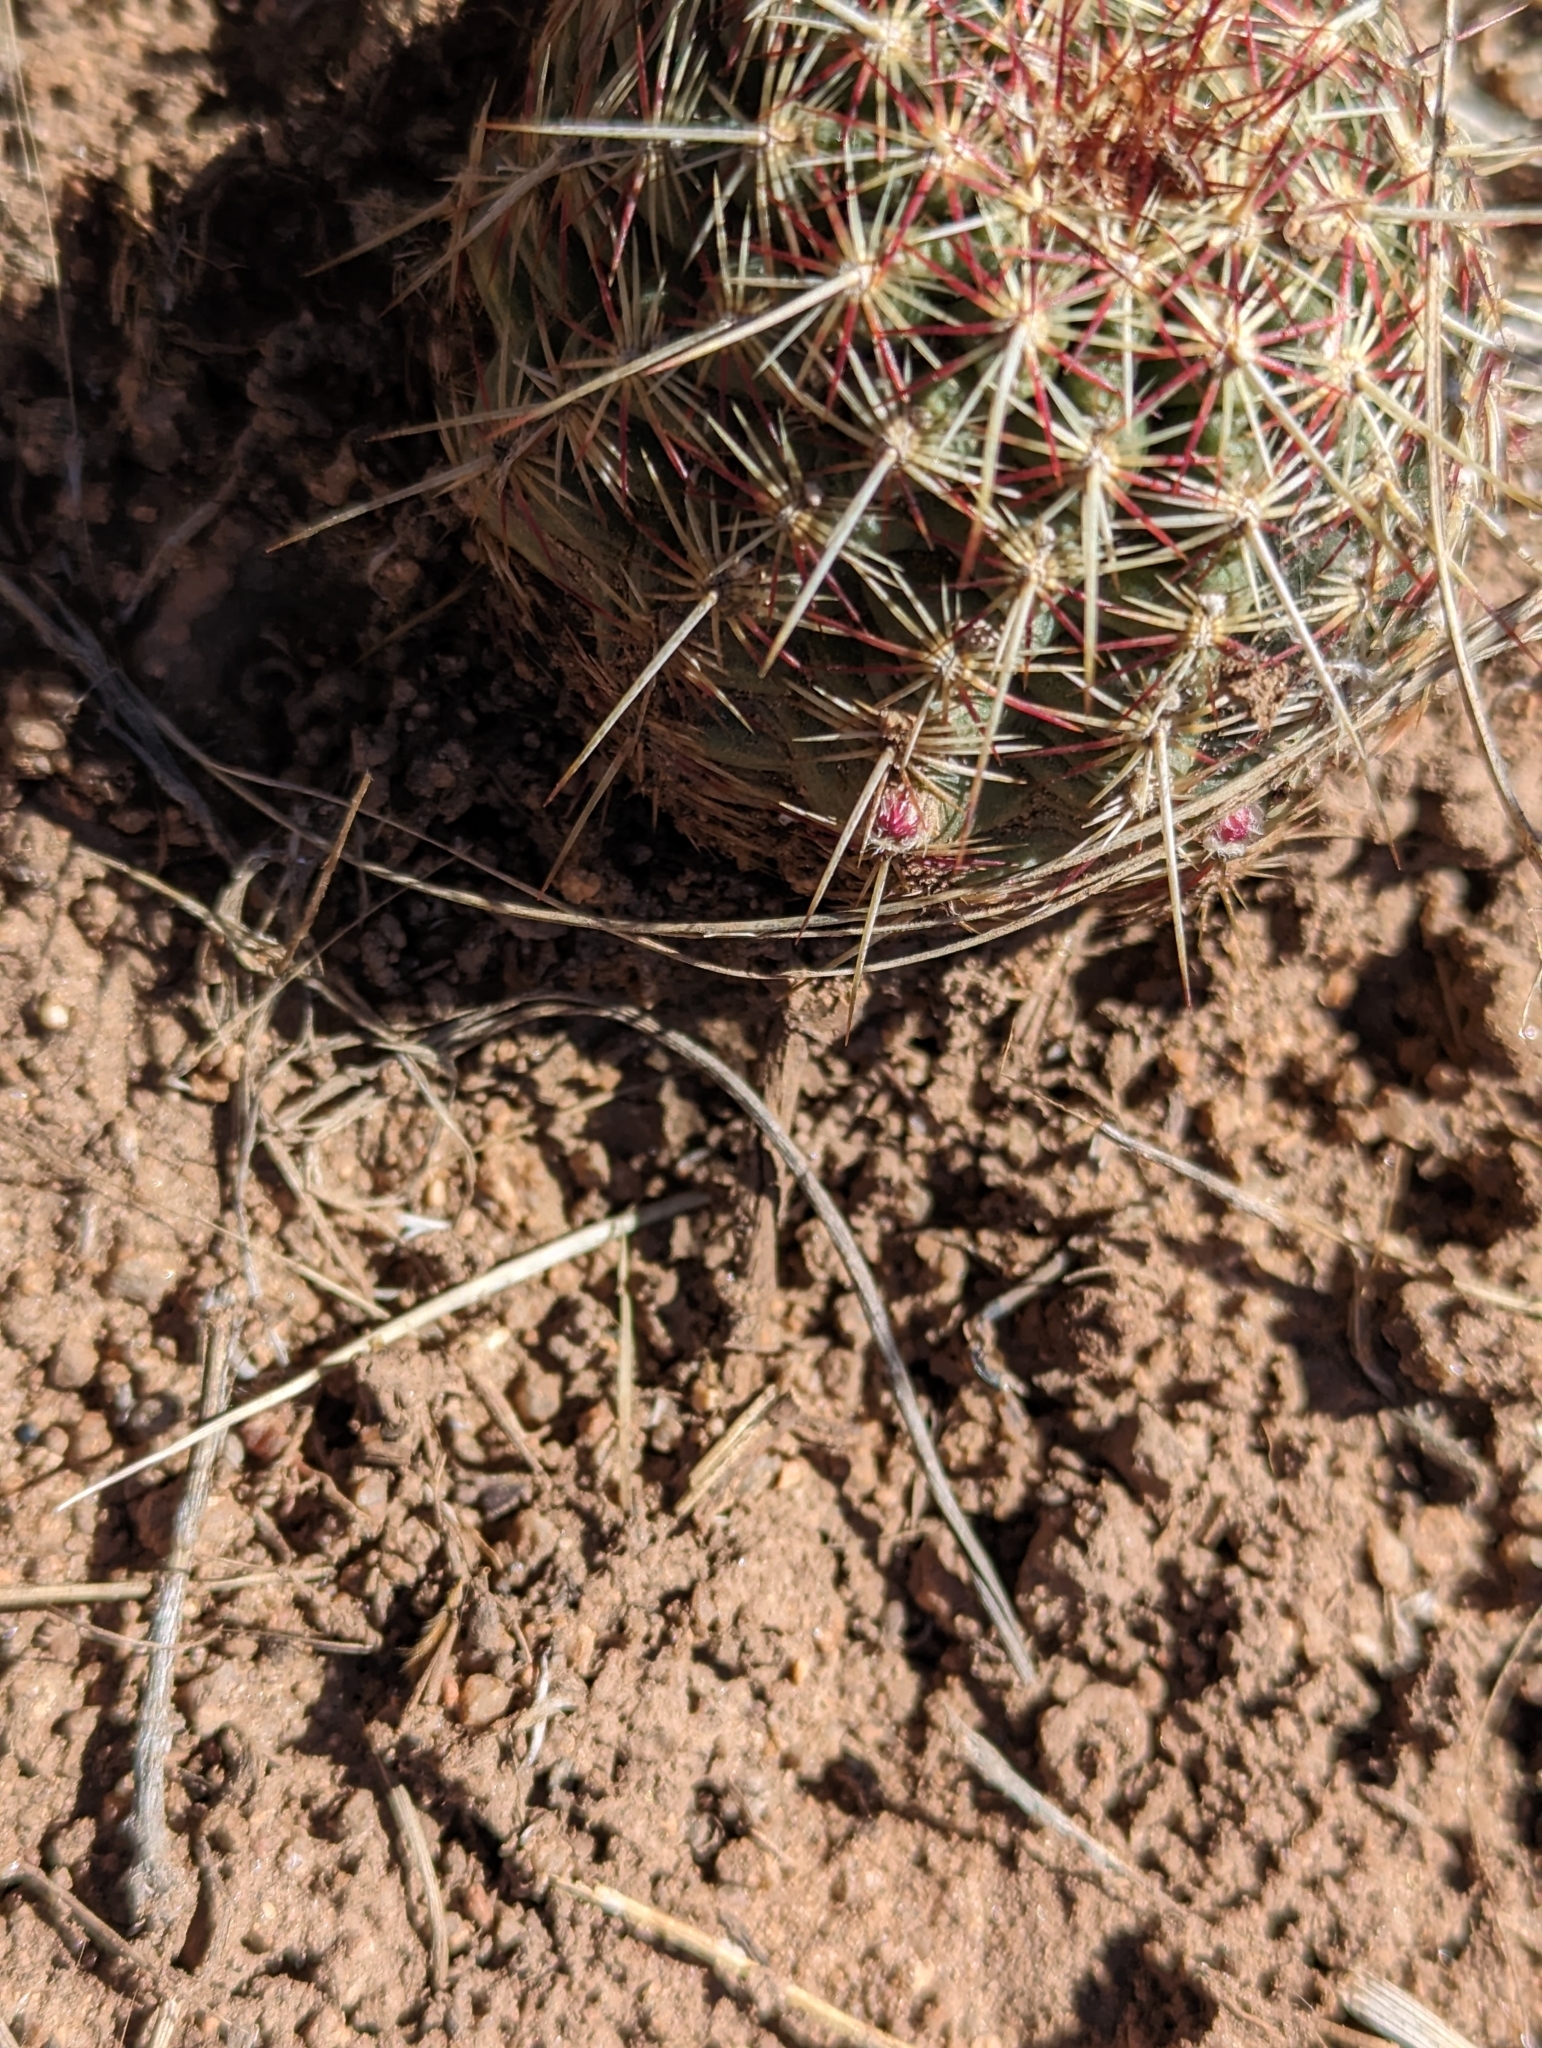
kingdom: Plantae
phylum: Tracheophyta
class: Magnoliopsida
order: Caryophyllales
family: Cactaceae
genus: Echinocereus
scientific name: Echinocereus viridiflorus
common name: Nylon hedgehog cactus
